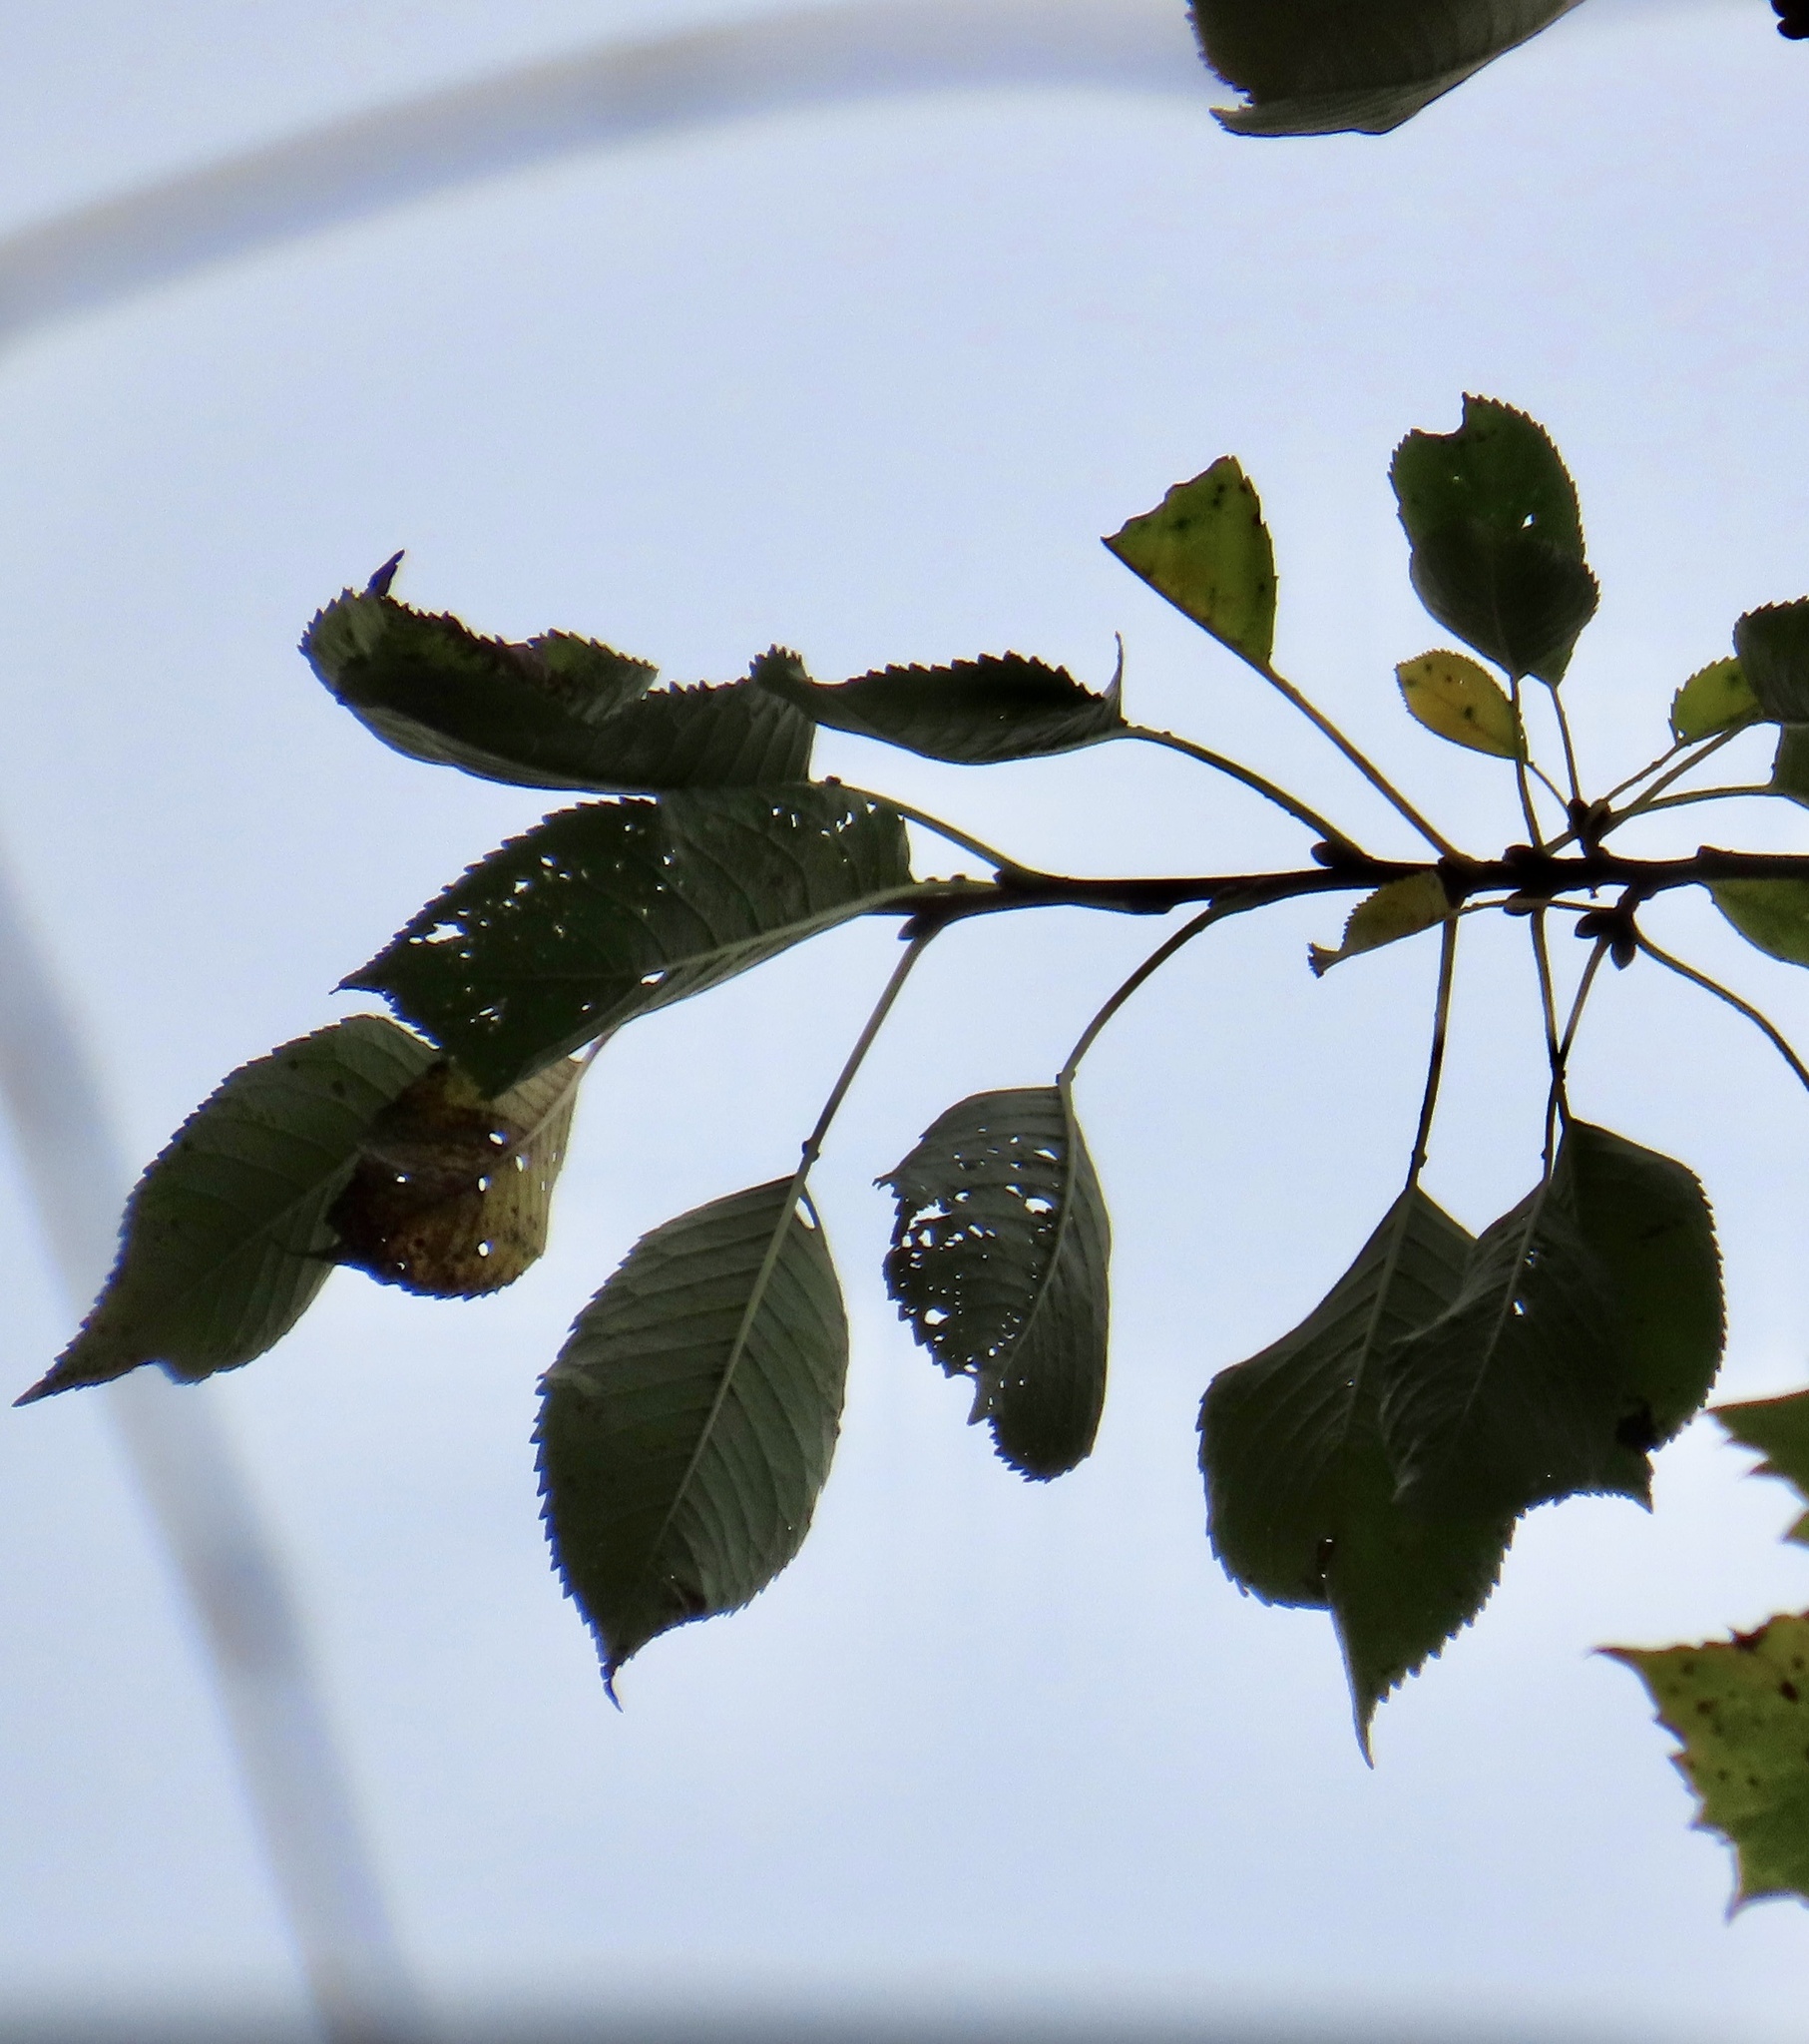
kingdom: Plantae
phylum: Tracheophyta
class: Magnoliopsida
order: Rosales
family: Rosaceae
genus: Prunus
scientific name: Prunus avium
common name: Sweet cherry
